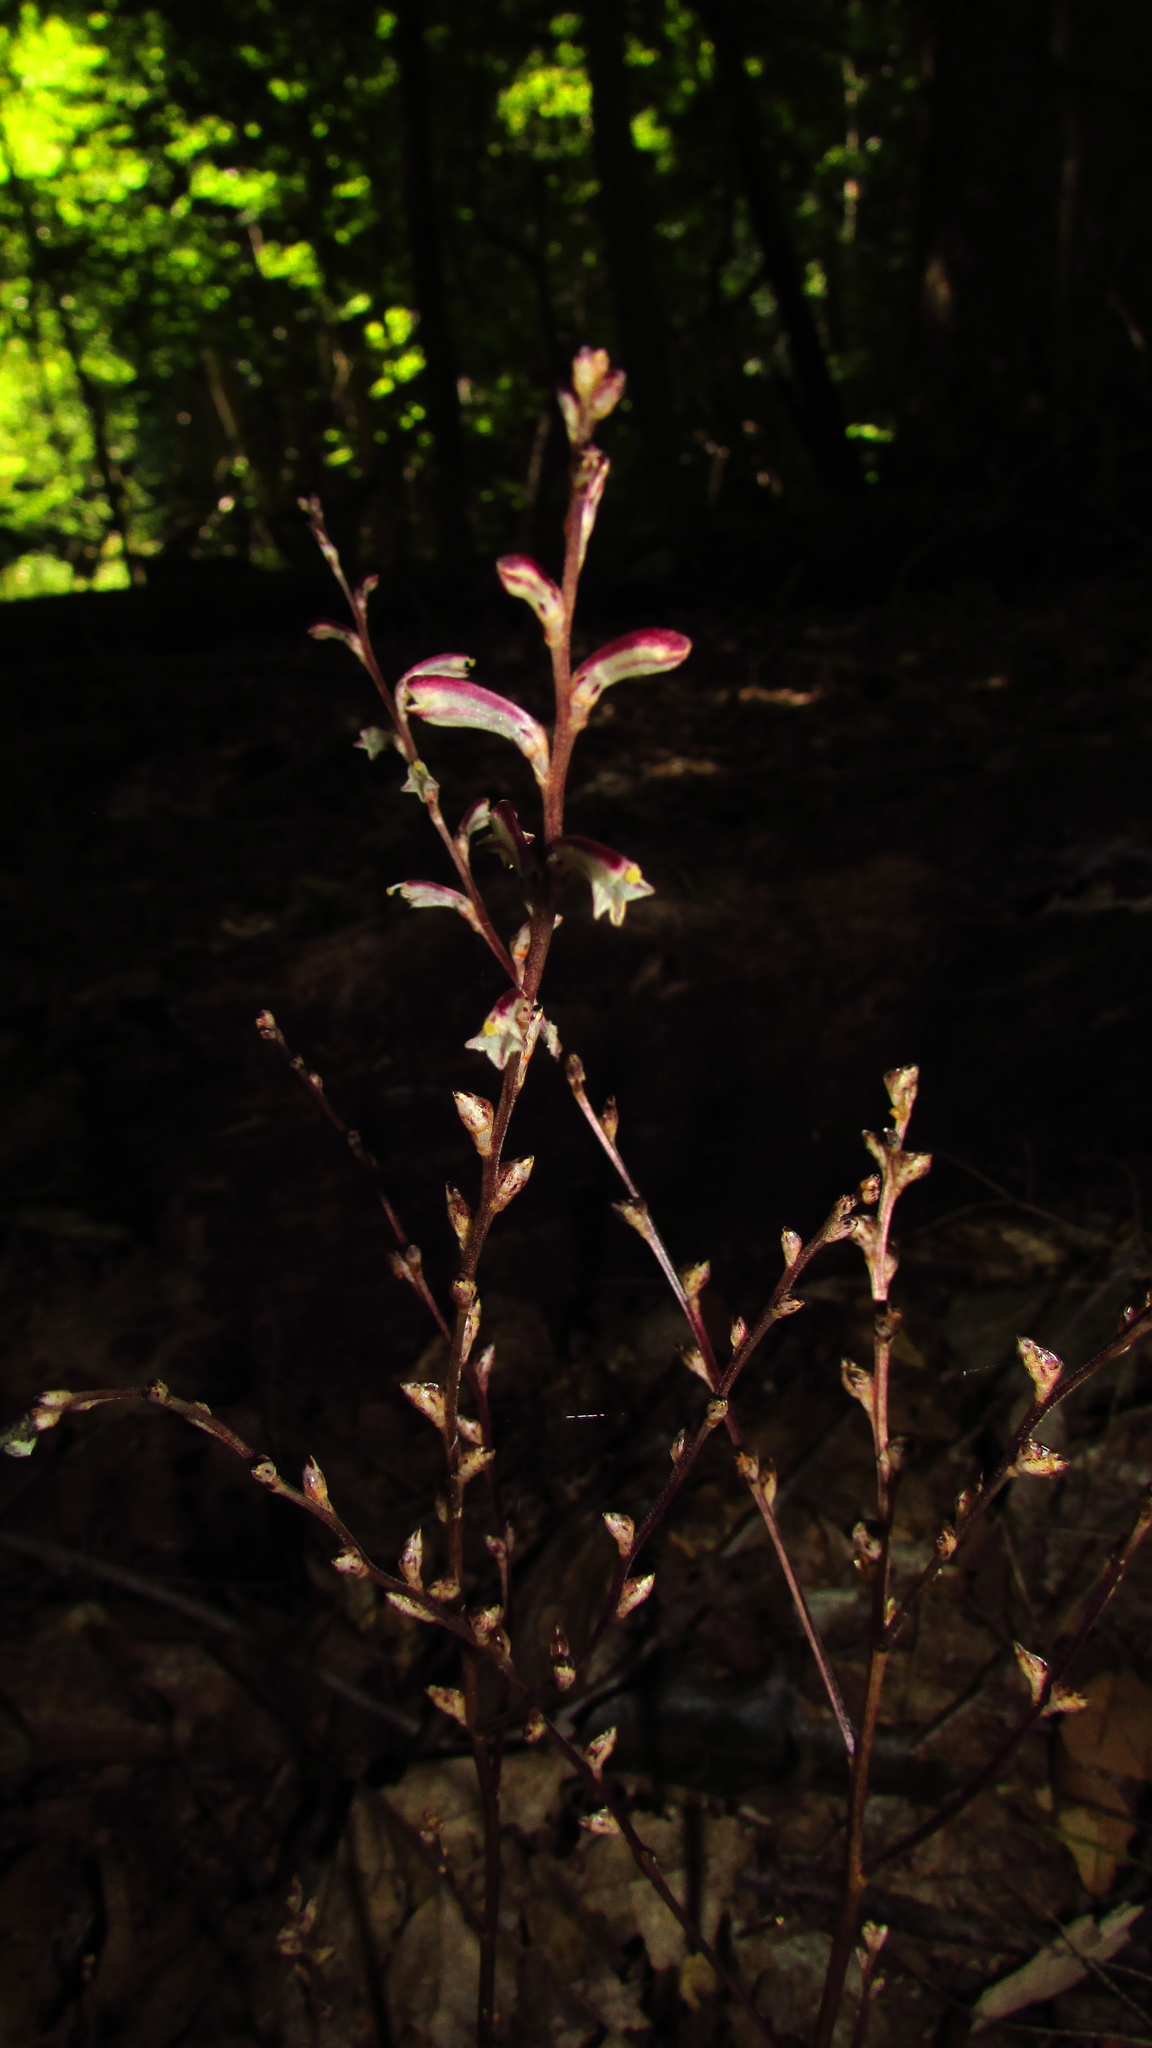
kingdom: Plantae
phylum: Tracheophyta
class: Magnoliopsida
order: Lamiales
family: Orobanchaceae
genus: Epifagus
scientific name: Epifagus virginiana
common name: Beechdrops
